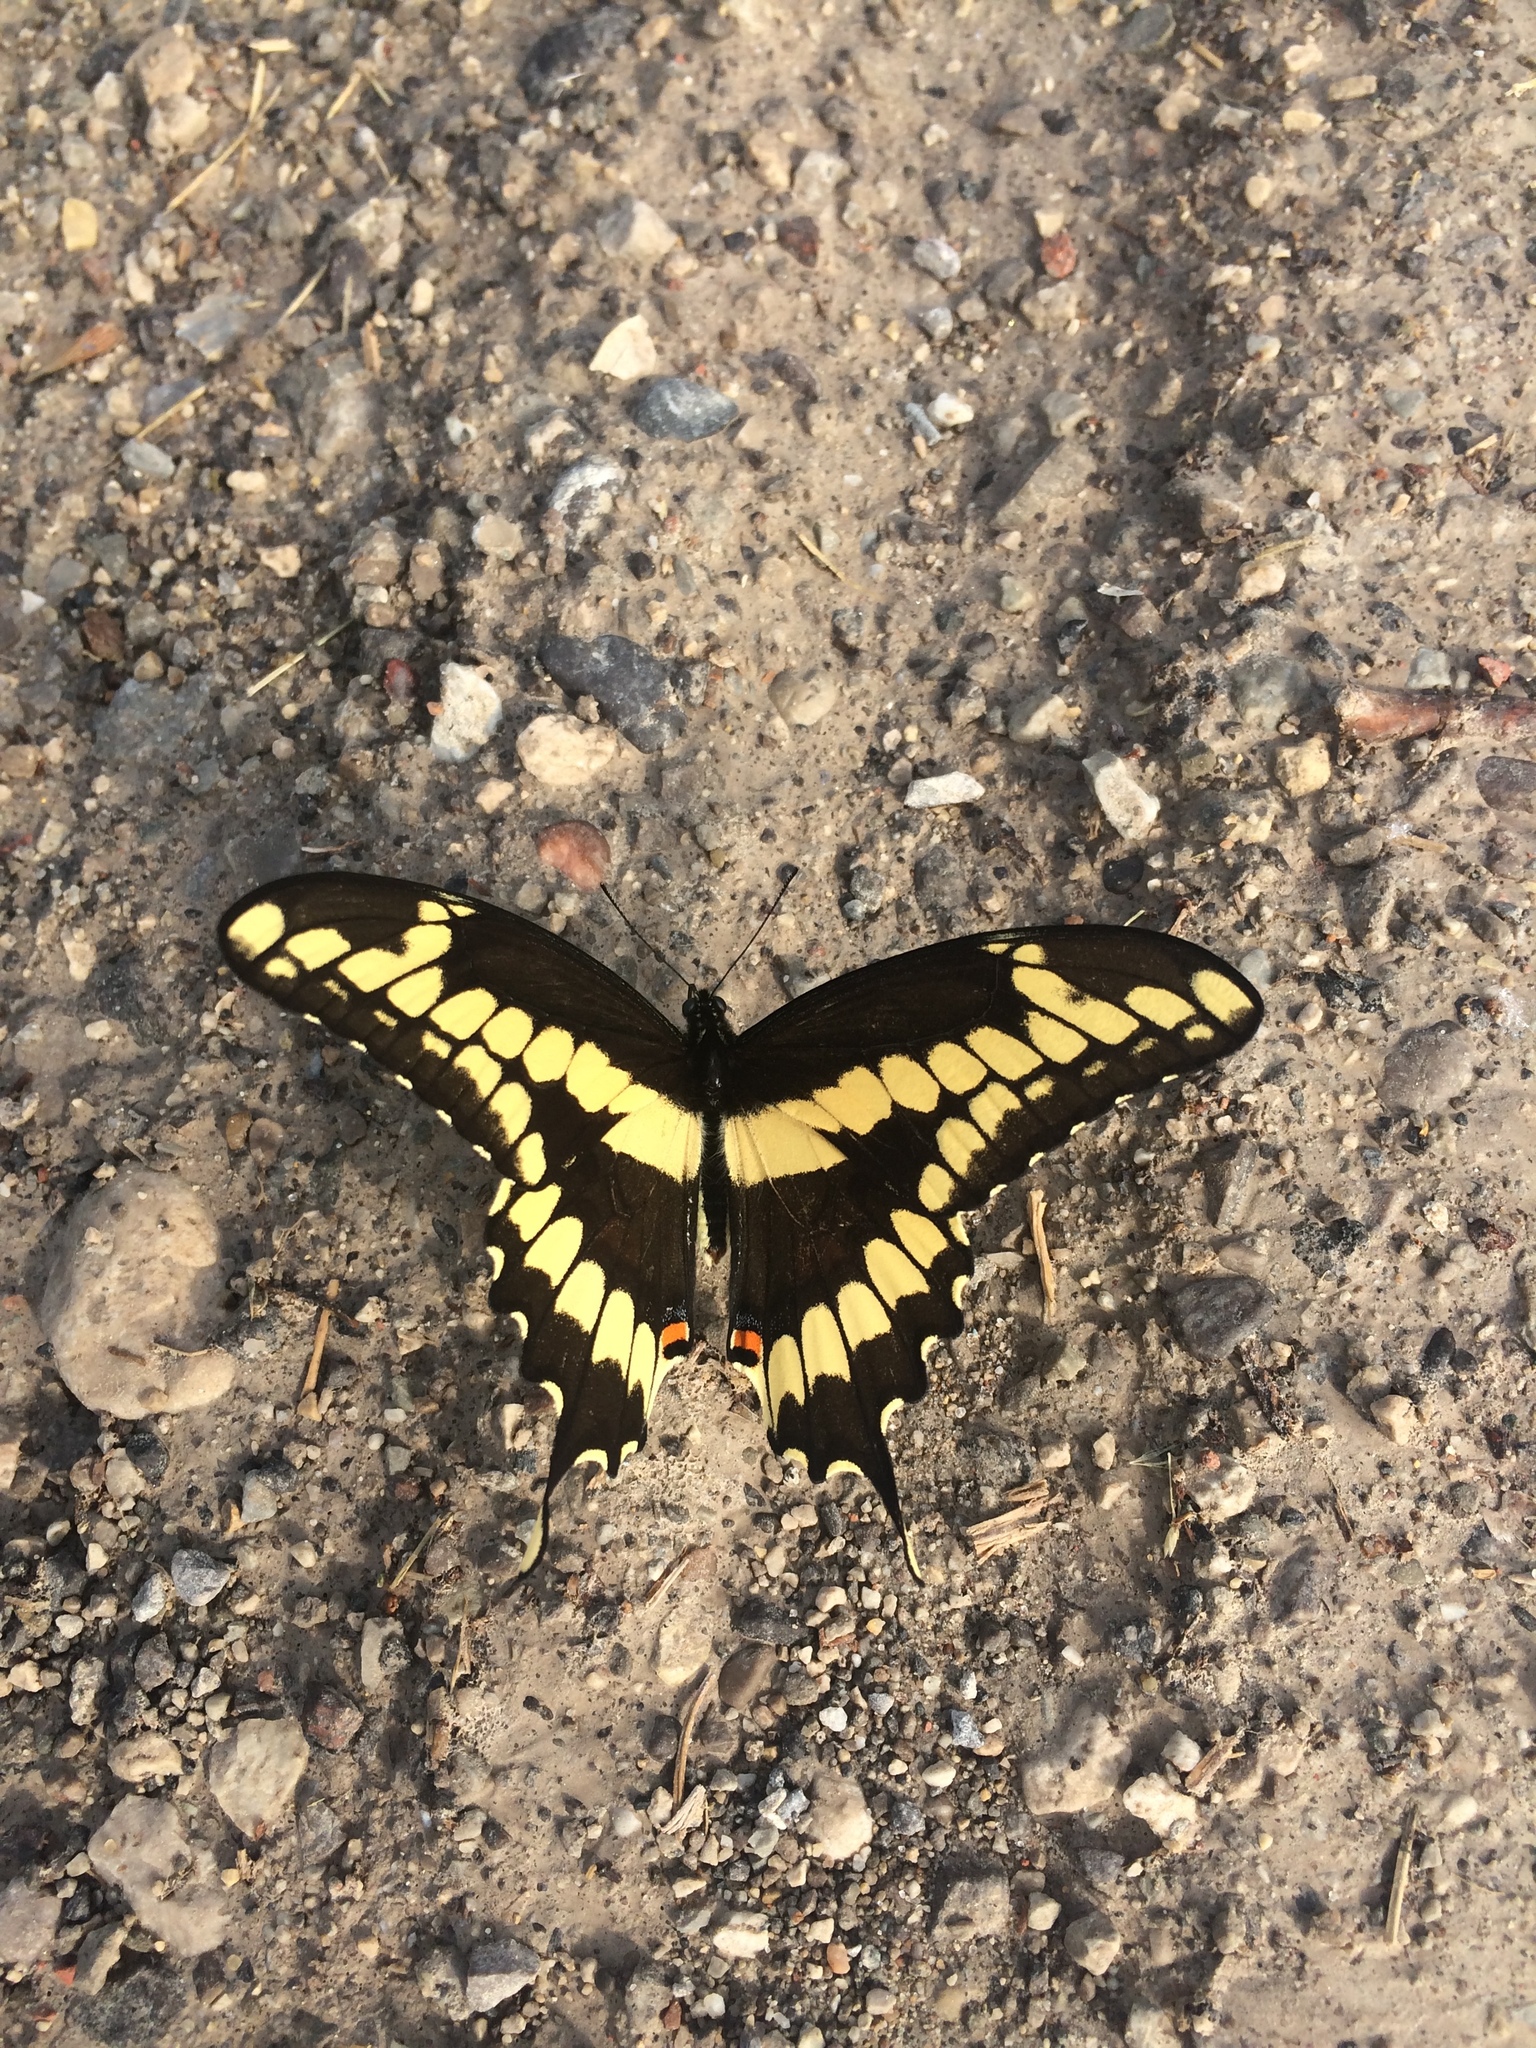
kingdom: Animalia
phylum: Arthropoda
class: Insecta
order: Lepidoptera
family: Papilionidae
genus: Papilio
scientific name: Papilio cresphontes
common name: Giant swallowtail
